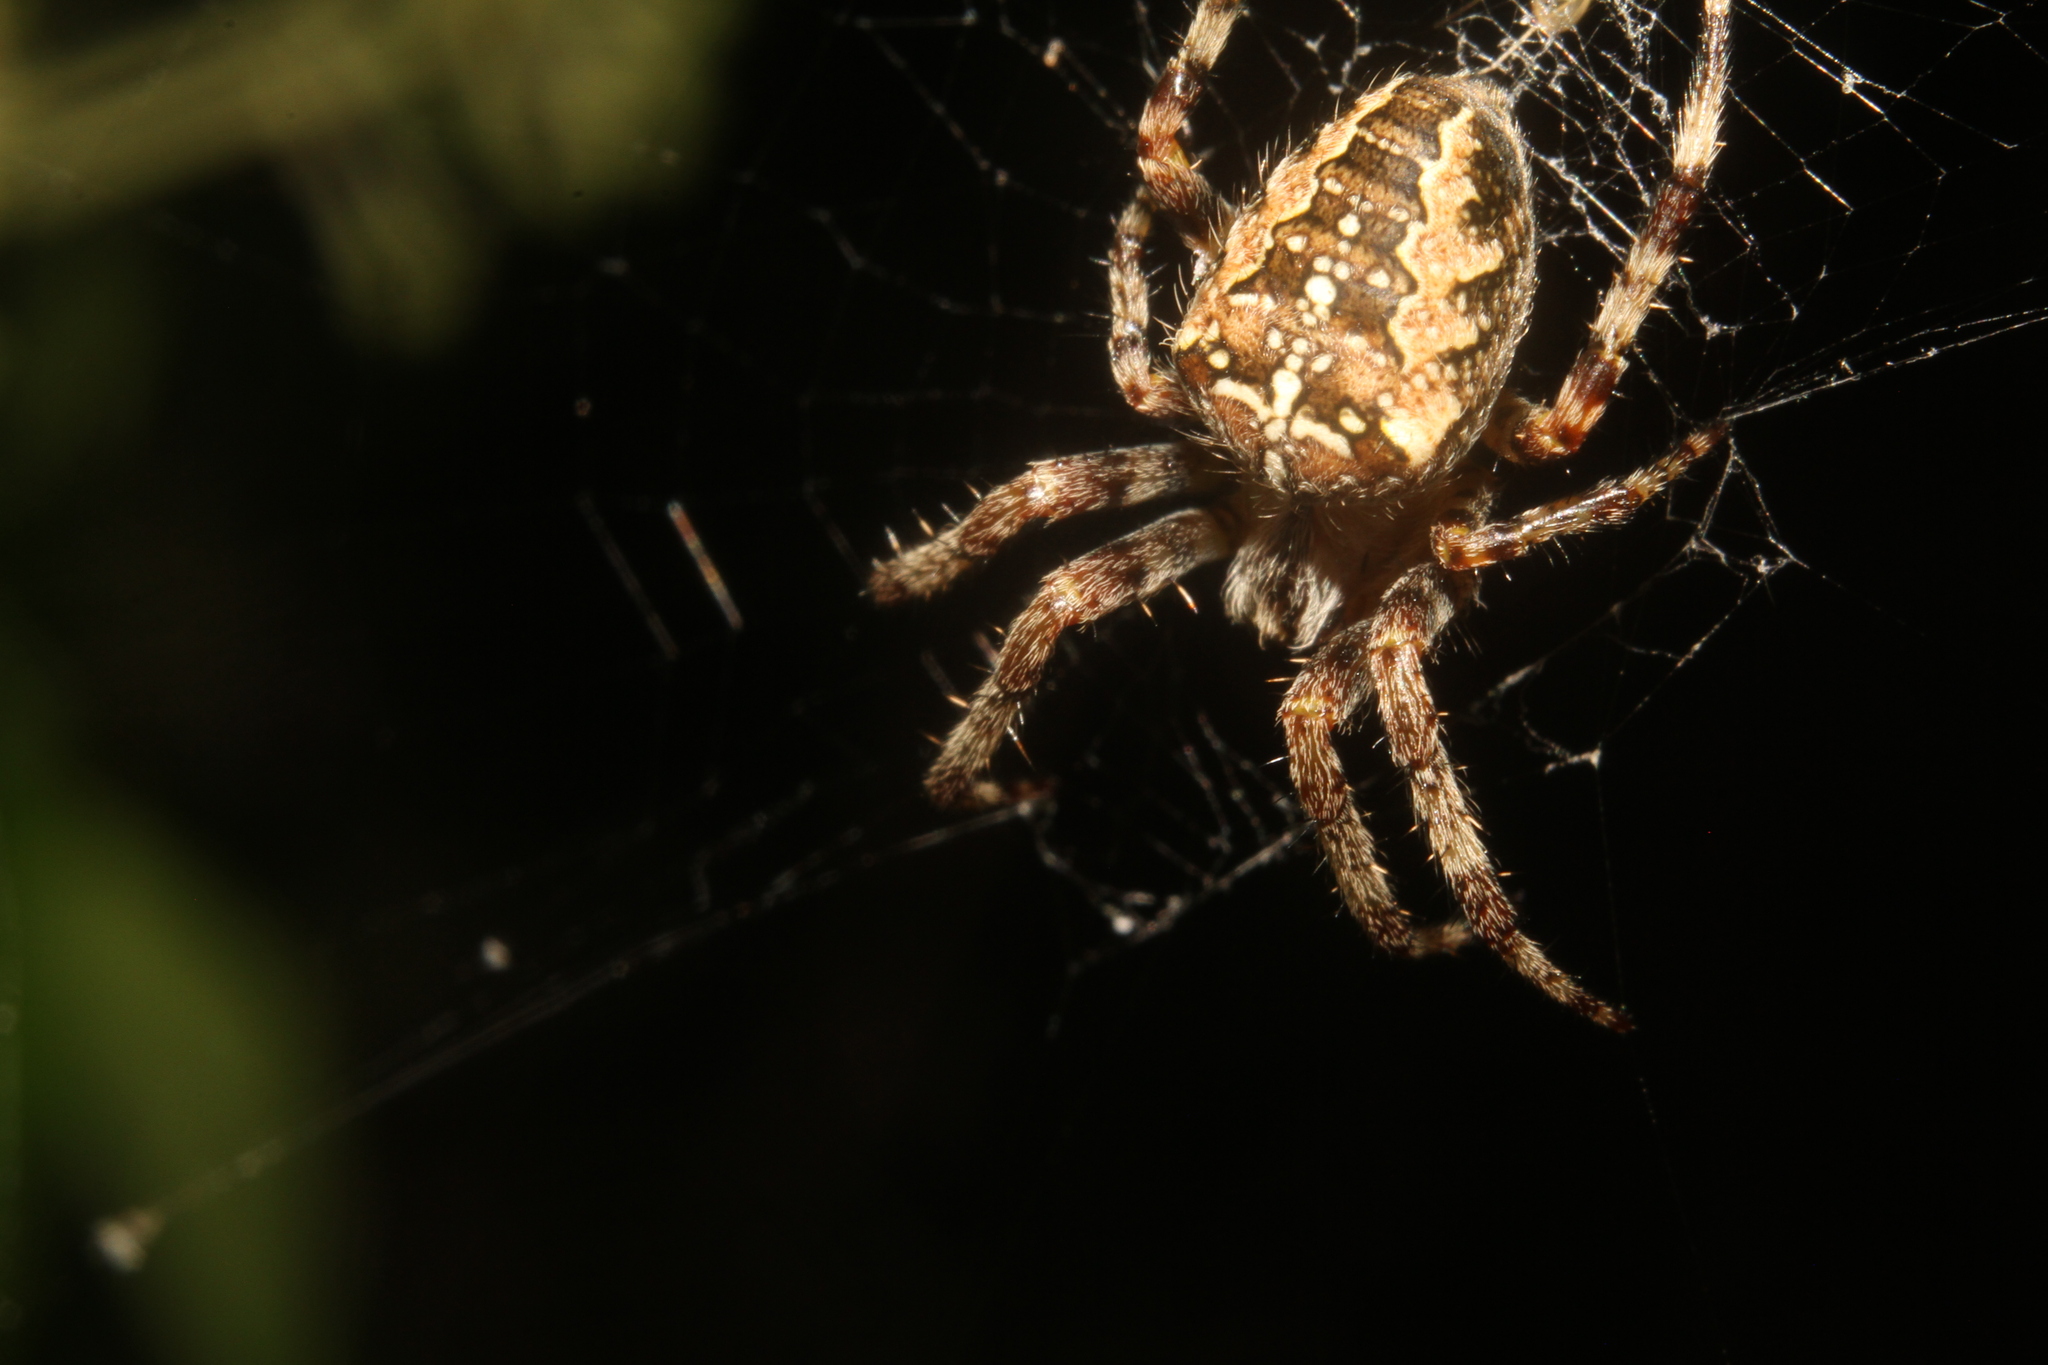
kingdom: Animalia
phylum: Arthropoda
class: Arachnida
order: Araneae
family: Araneidae
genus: Araneus
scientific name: Araneus diadematus
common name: Cross orbweaver
